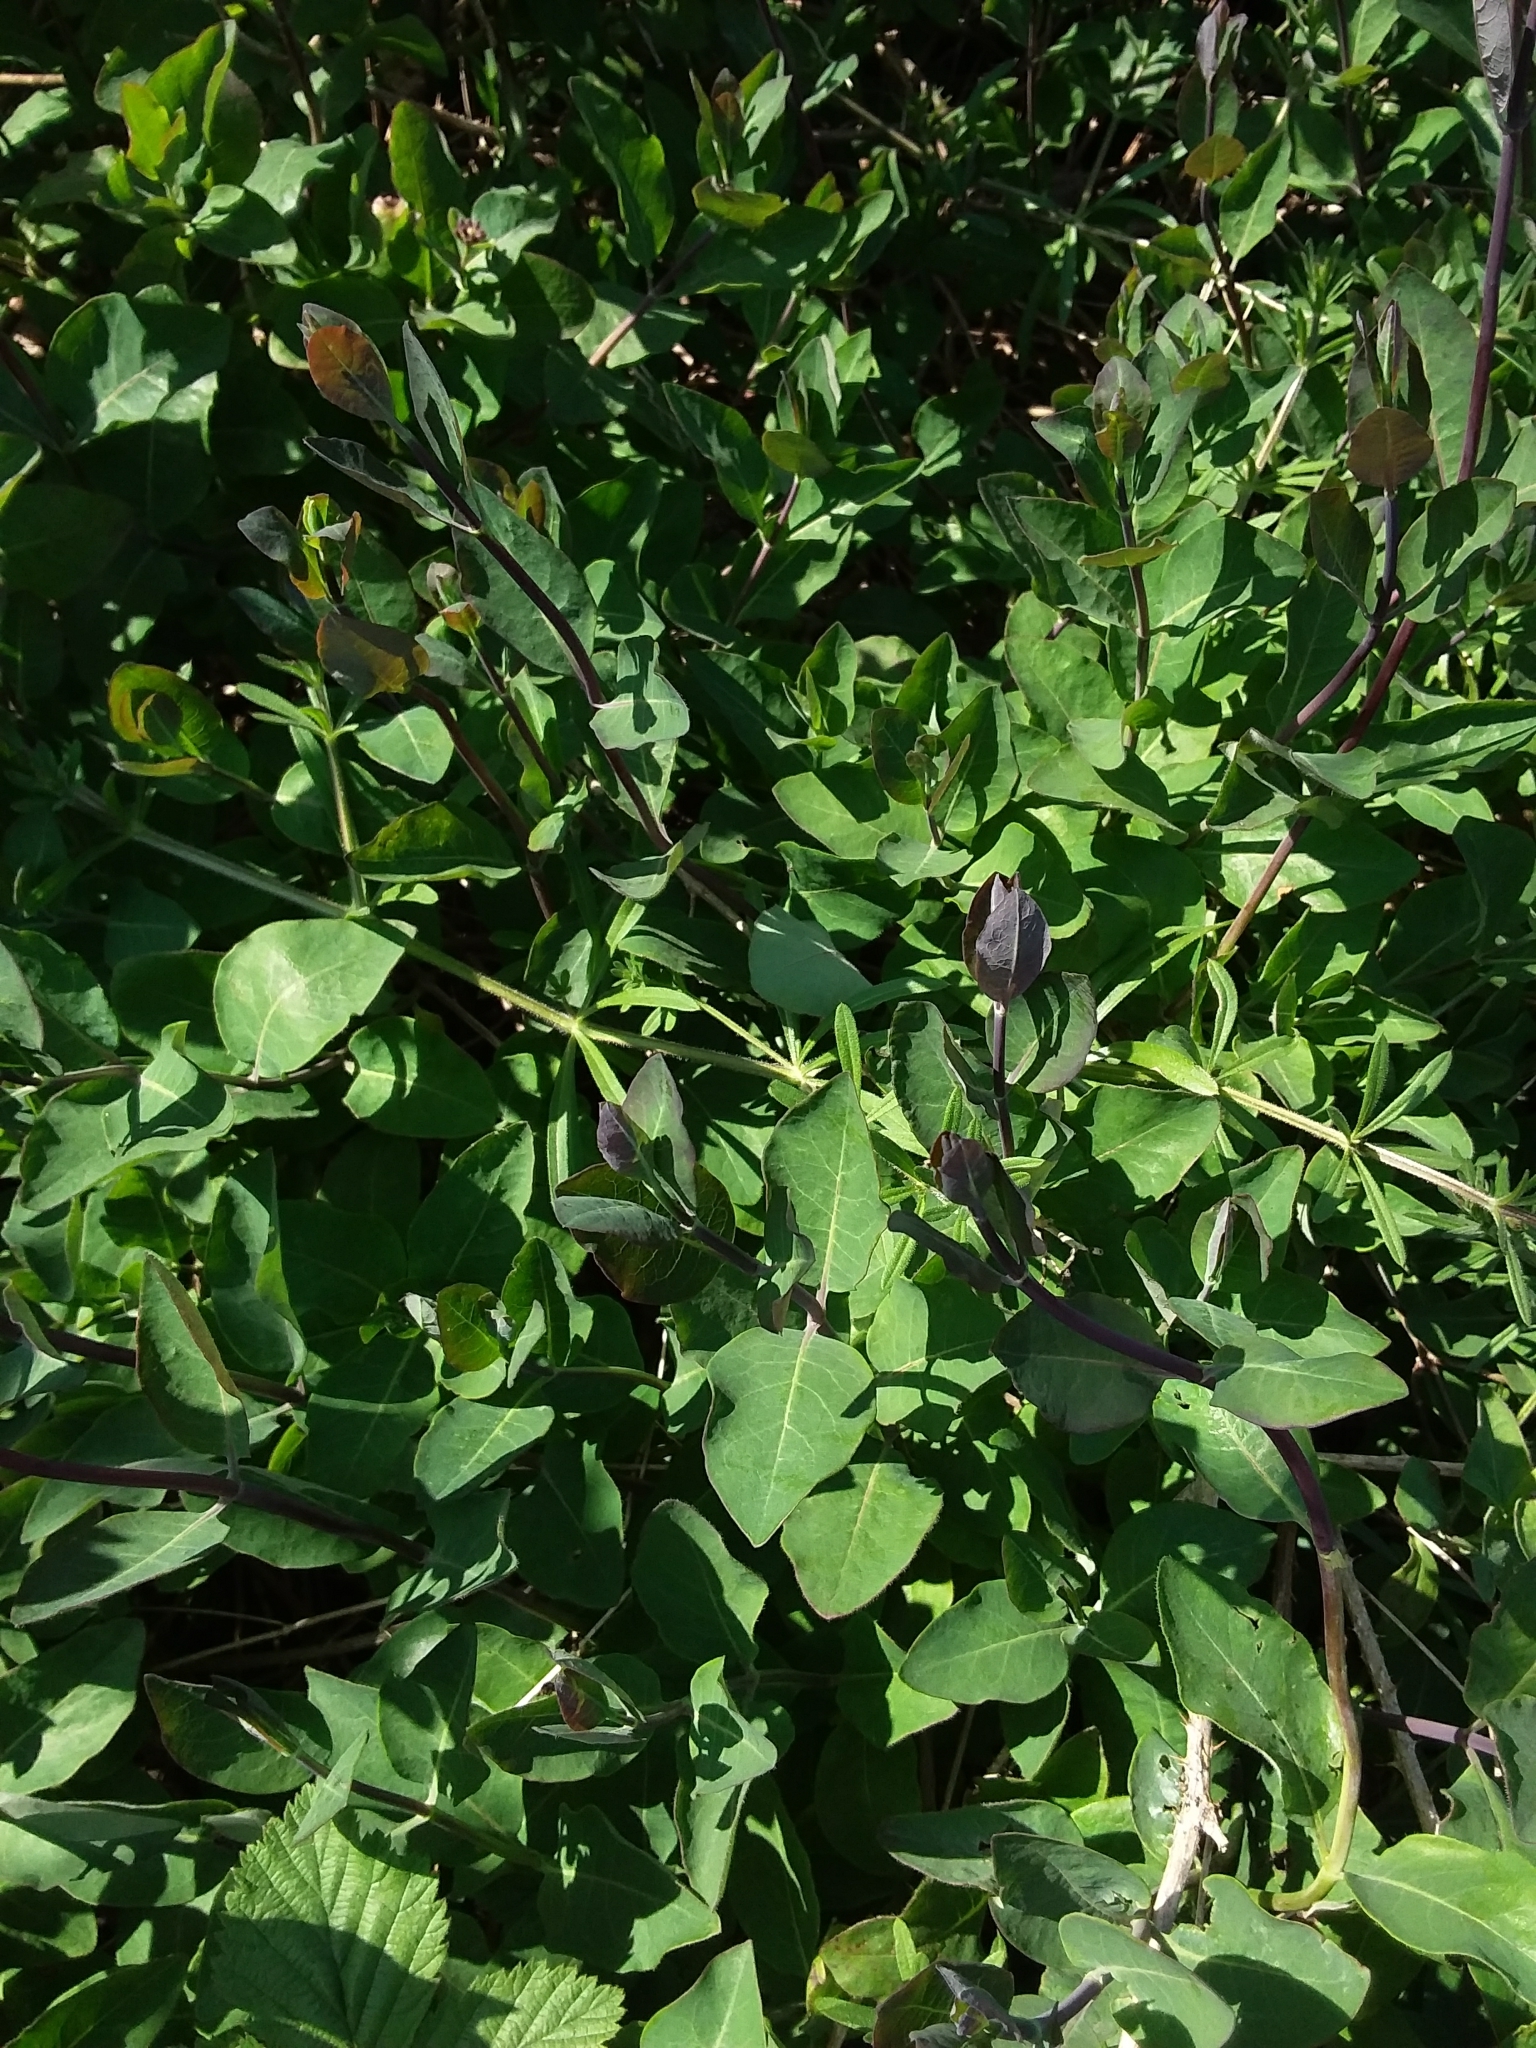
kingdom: Plantae
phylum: Tracheophyta
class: Magnoliopsida
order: Dipsacales
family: Caprifoliaceae
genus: Lonicera
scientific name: Lonicera periclymenum
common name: European honeysuckle
